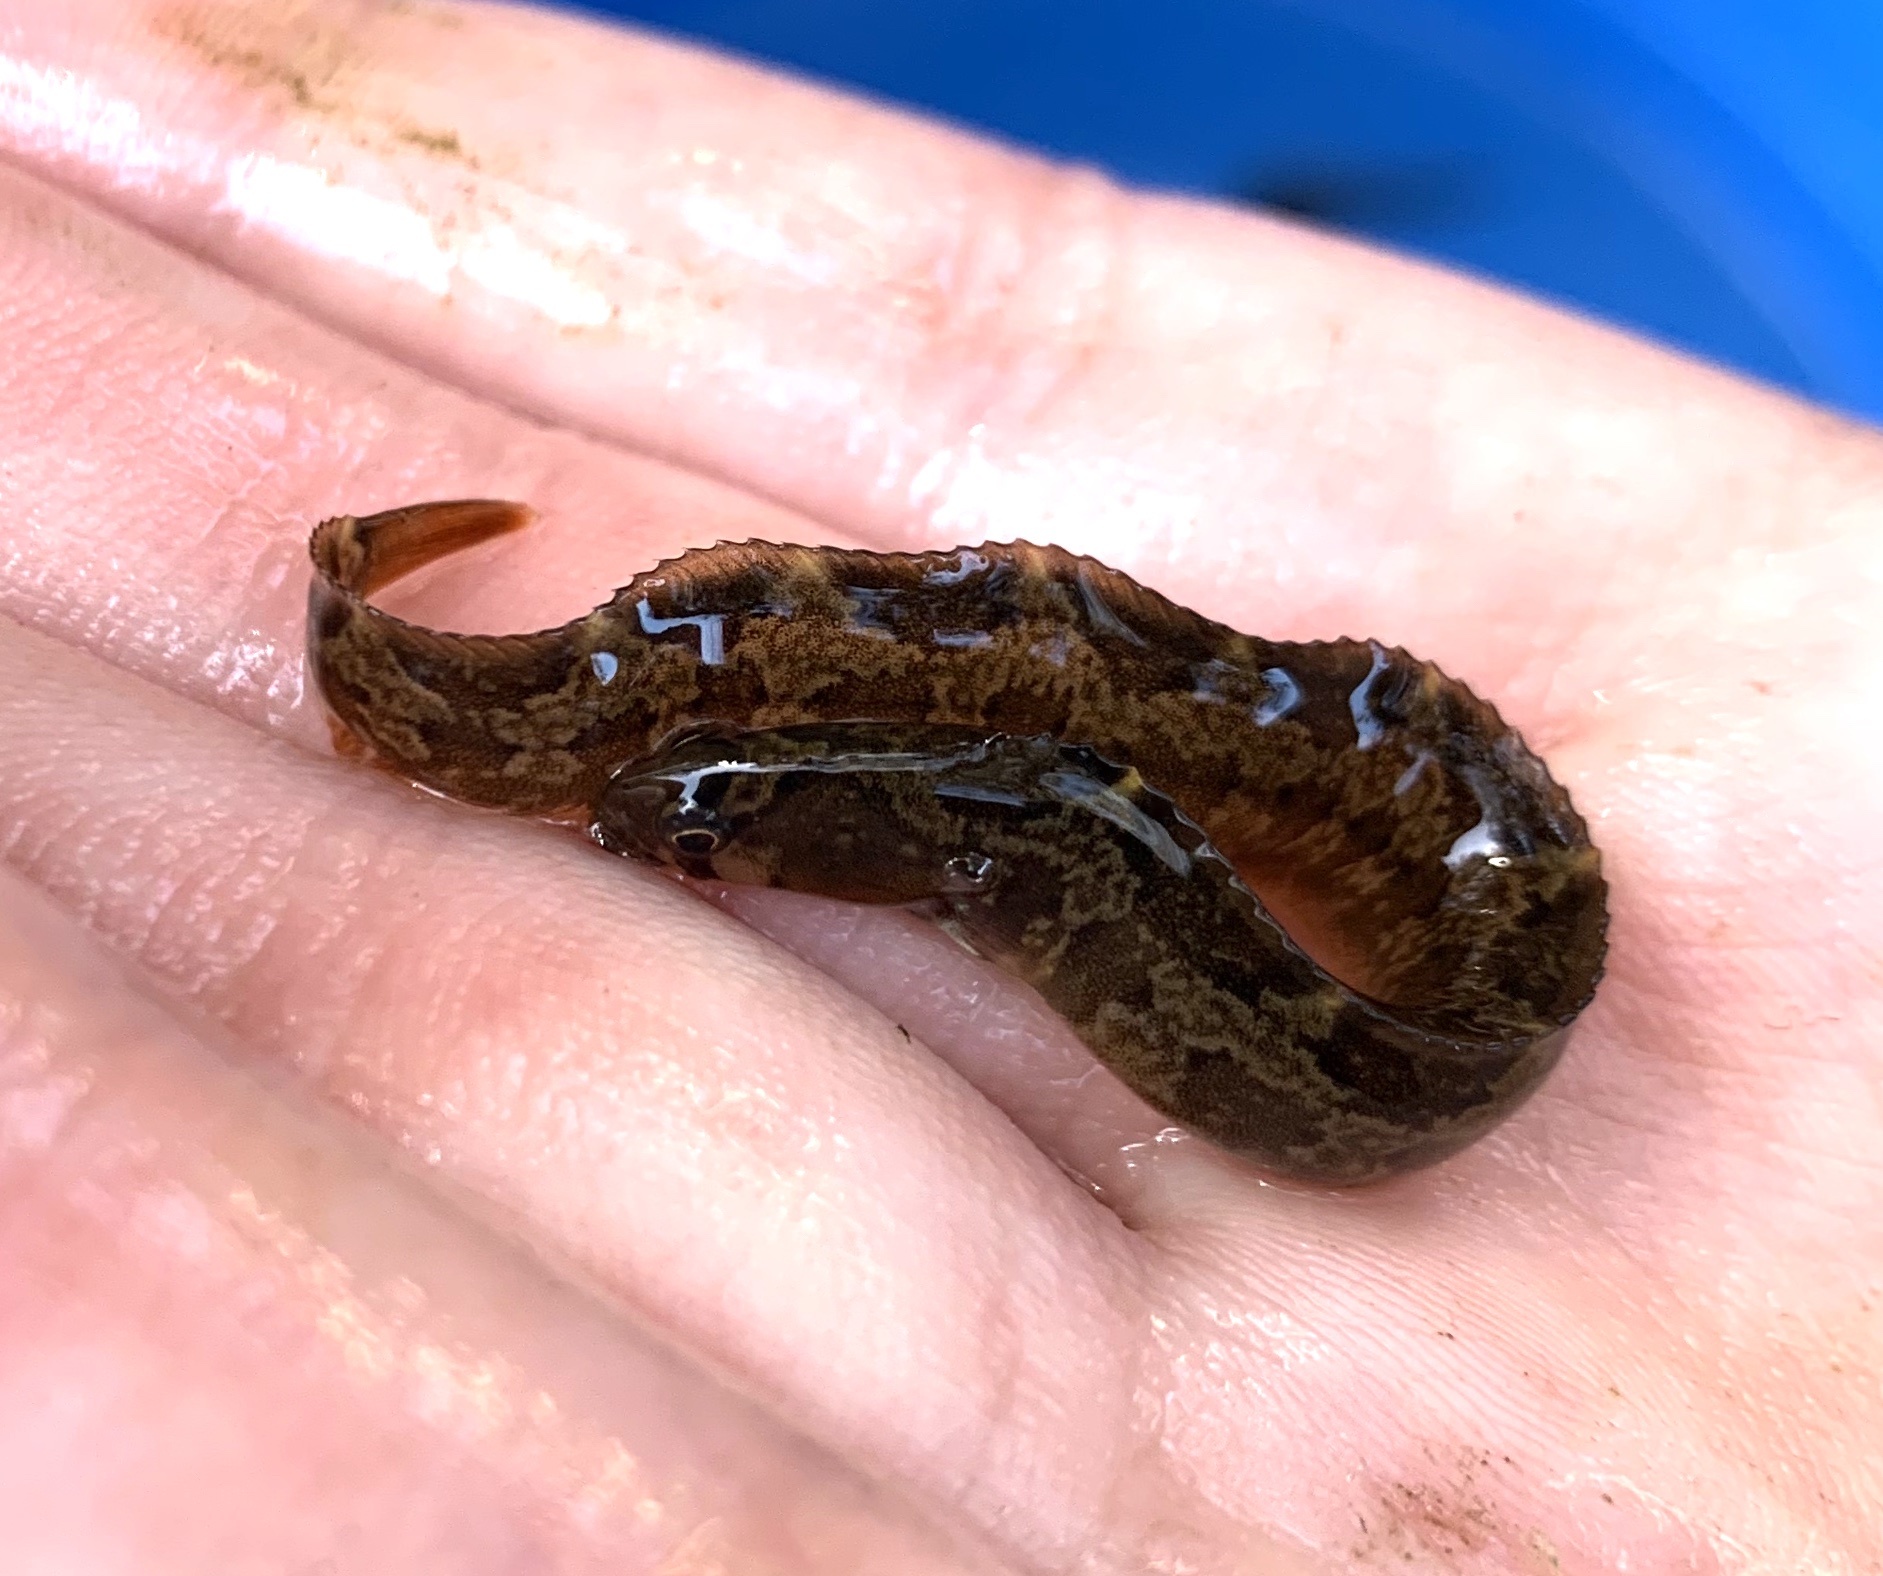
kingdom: Animalia
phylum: Chordata
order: Perciformes
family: Pholidae
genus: Pholis
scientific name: Pholis ornata
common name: Saddleback gunnel
